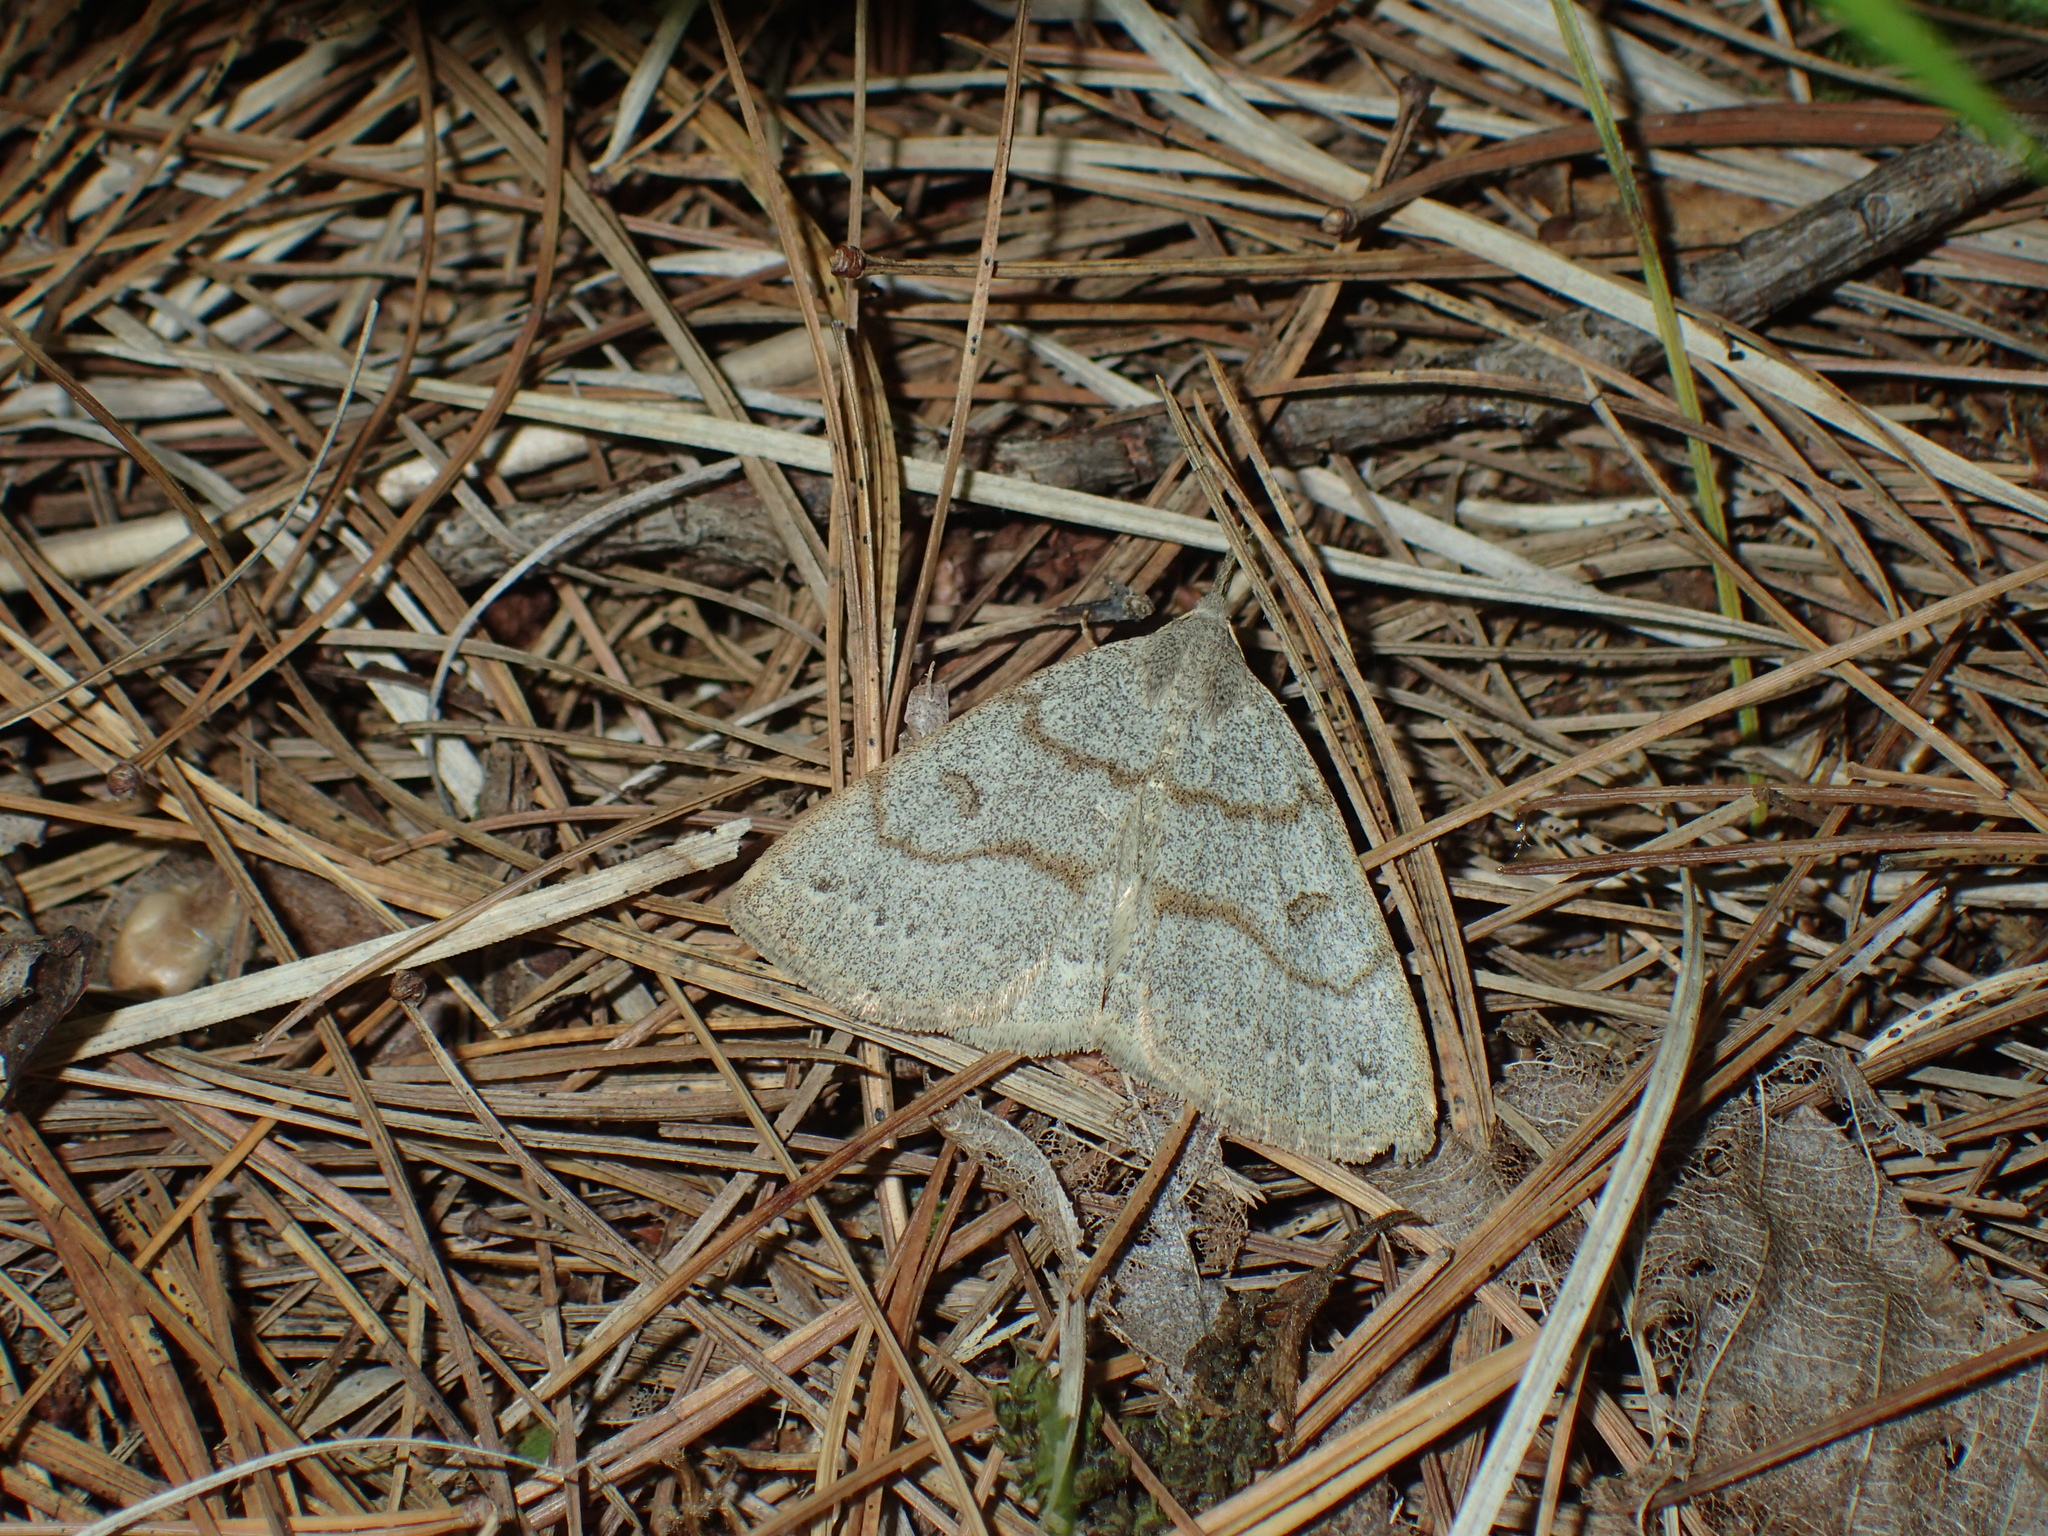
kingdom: Animalia
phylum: Arthropoda
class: Insecta
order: Lepidoptera
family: Erebidae
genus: Macrochilo
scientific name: Macrochilo morbidalis
